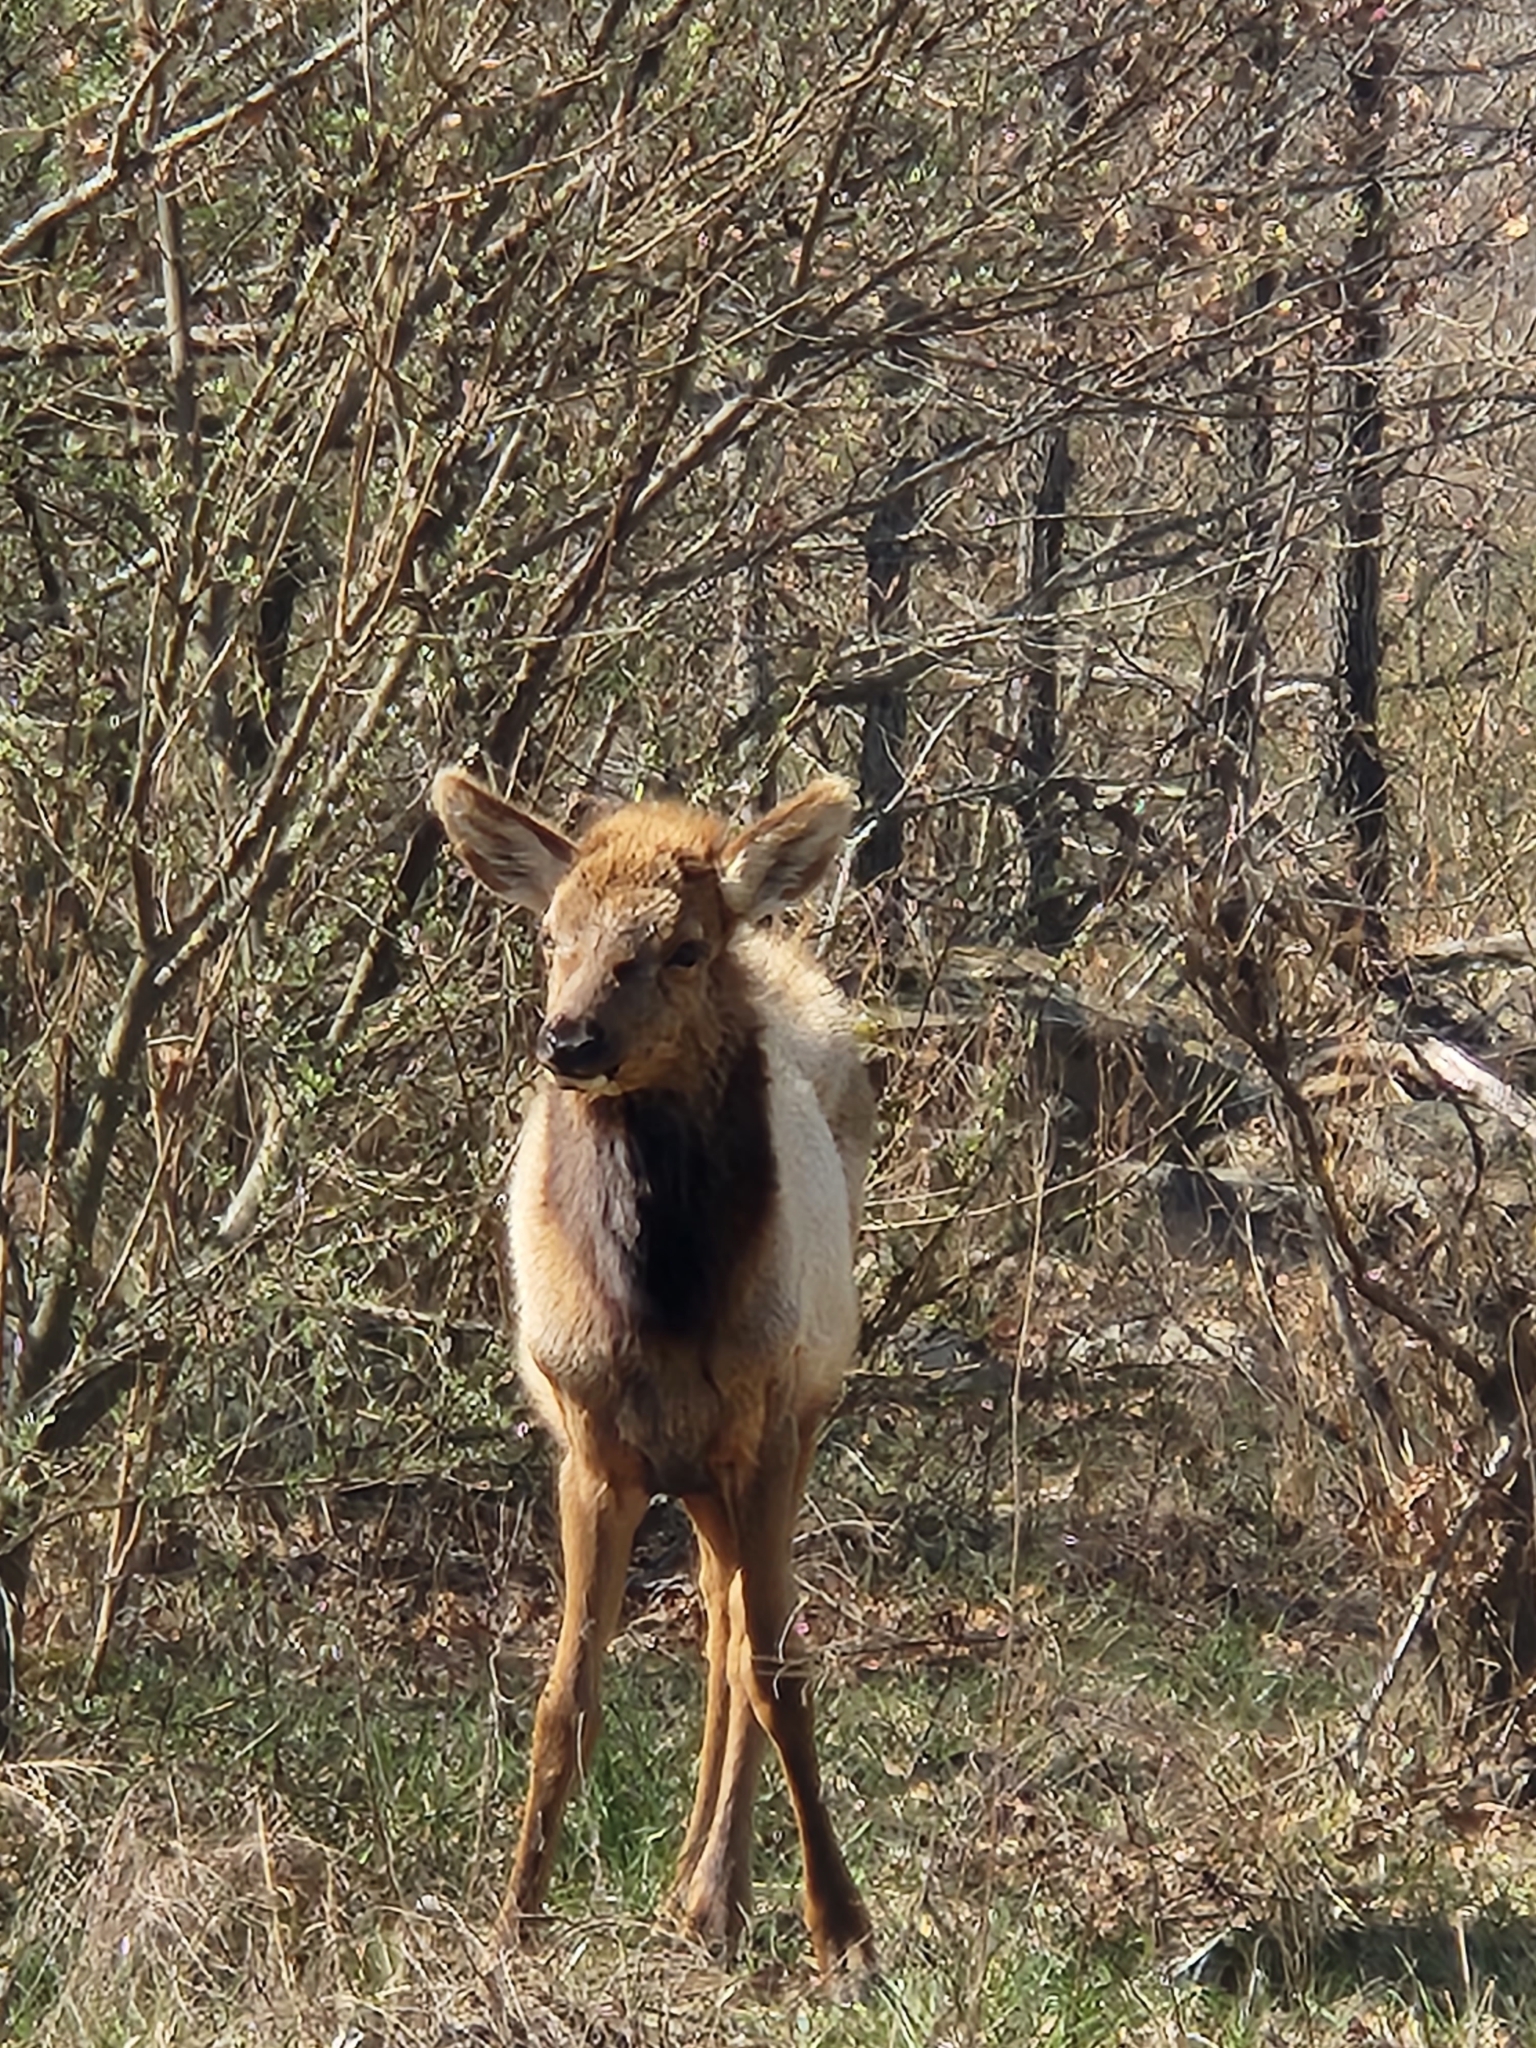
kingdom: Animalia
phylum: Chordata
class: Mammalia
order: Artiodactyla
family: Cervidae
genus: Cervus
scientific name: Cervus elaphus
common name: Red deer
